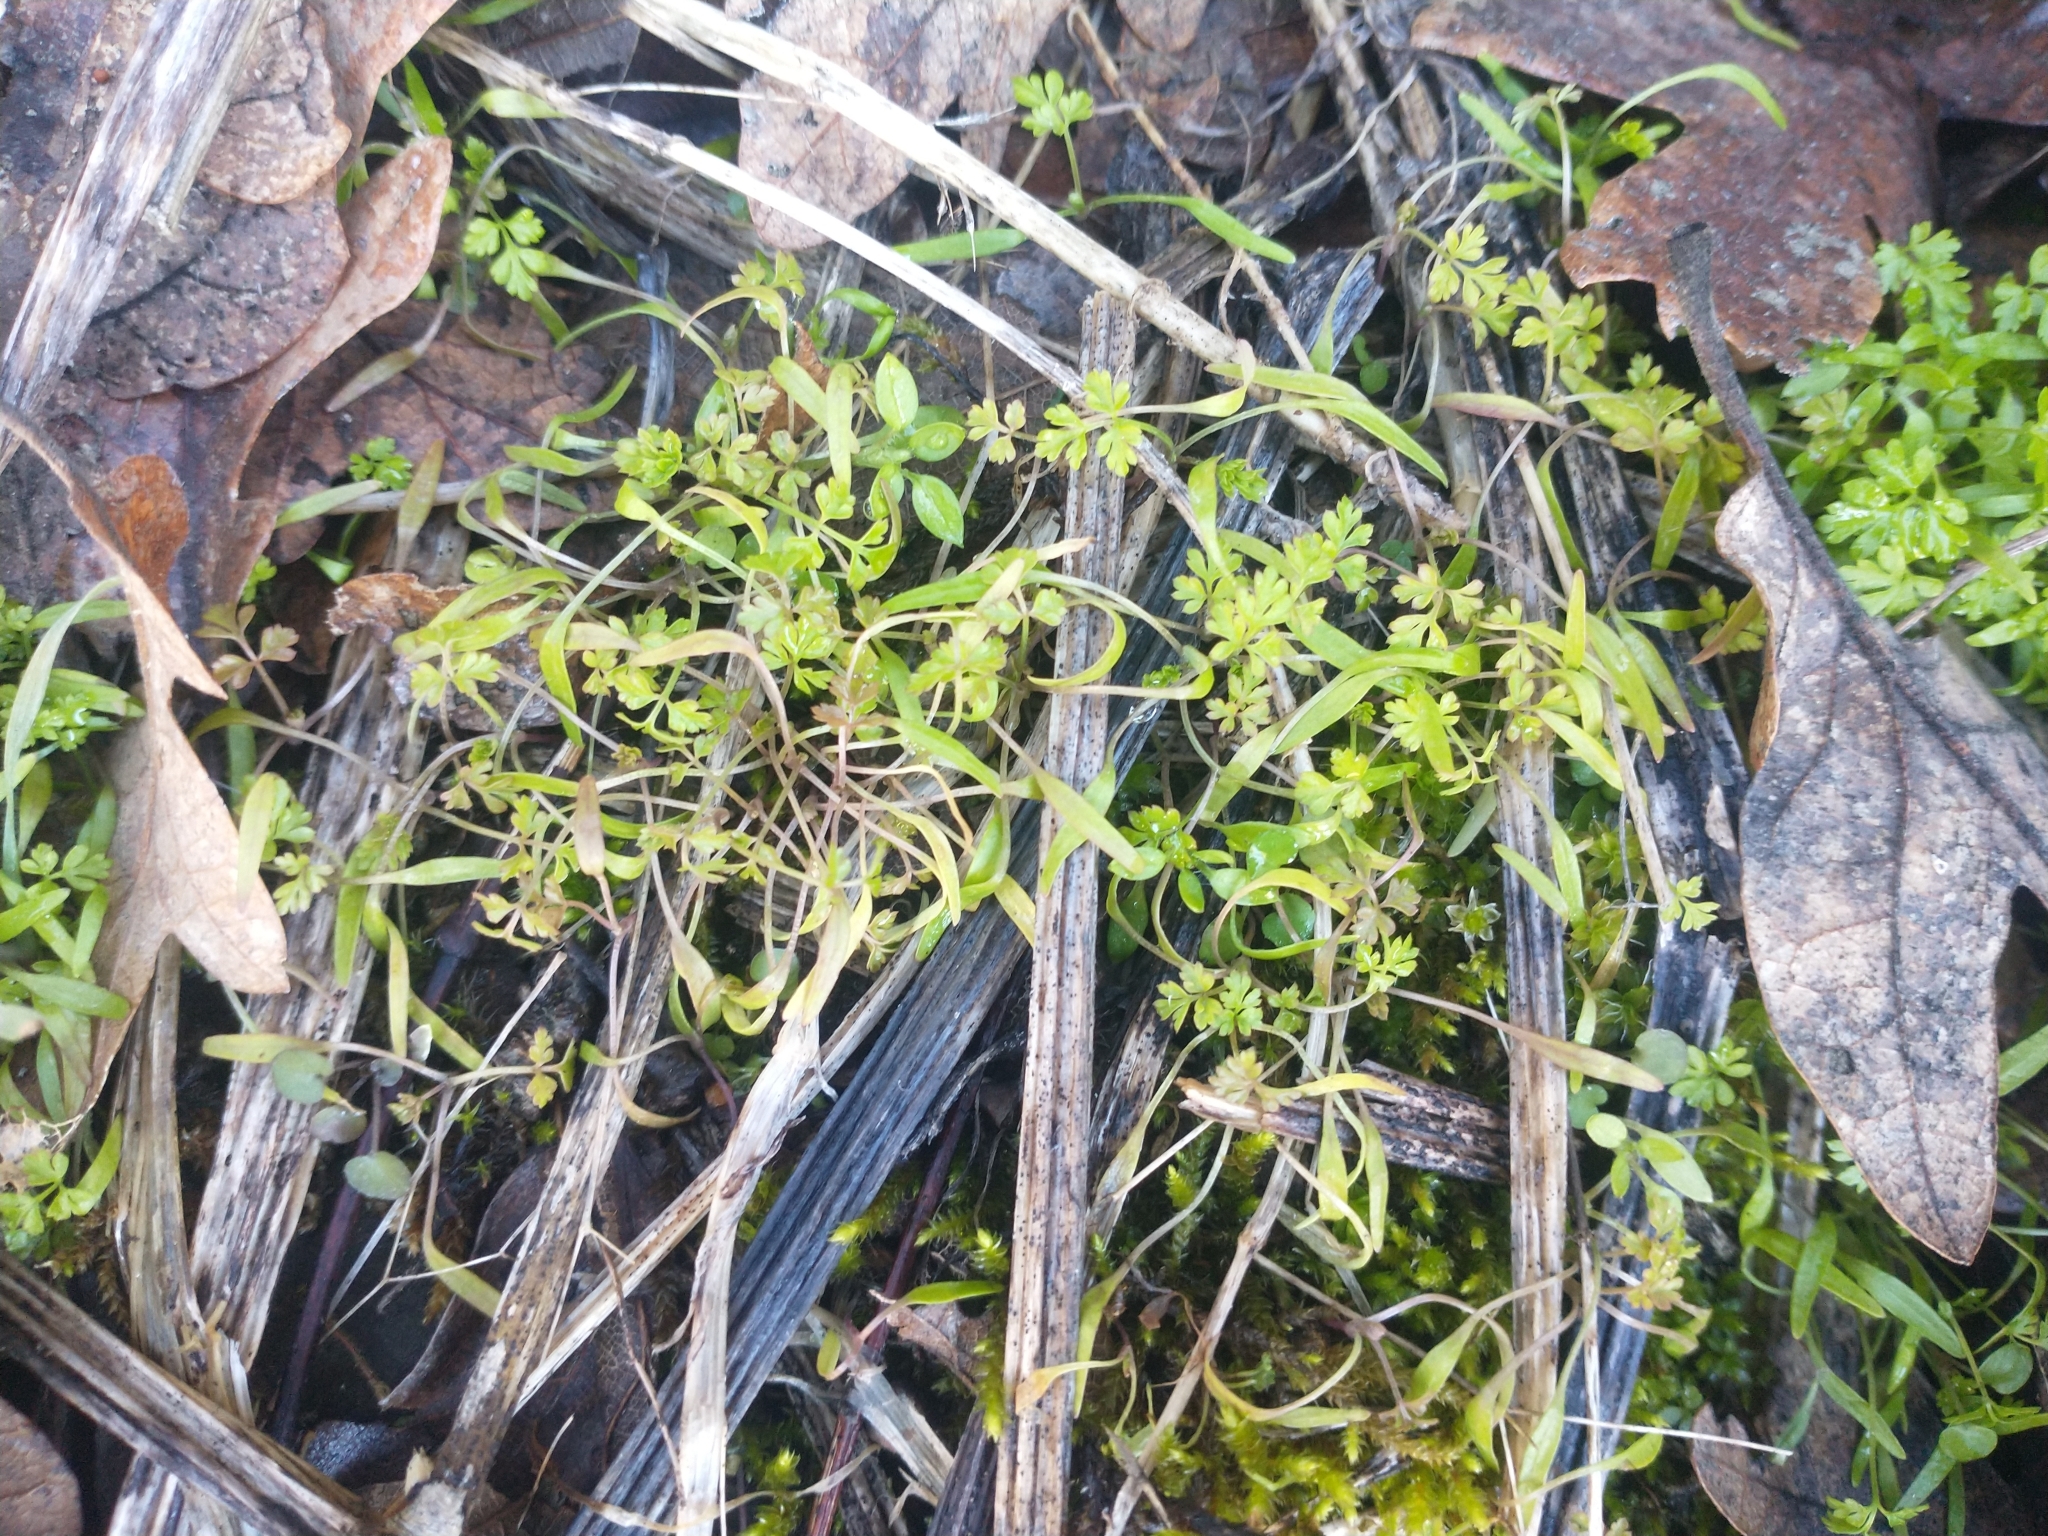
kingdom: Plantae
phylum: Tracheophyta
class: Magnoliopsida
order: Apiales
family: Apiaceae
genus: Anthriscus
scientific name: Anthriscus caucalis
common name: Bur chervil
